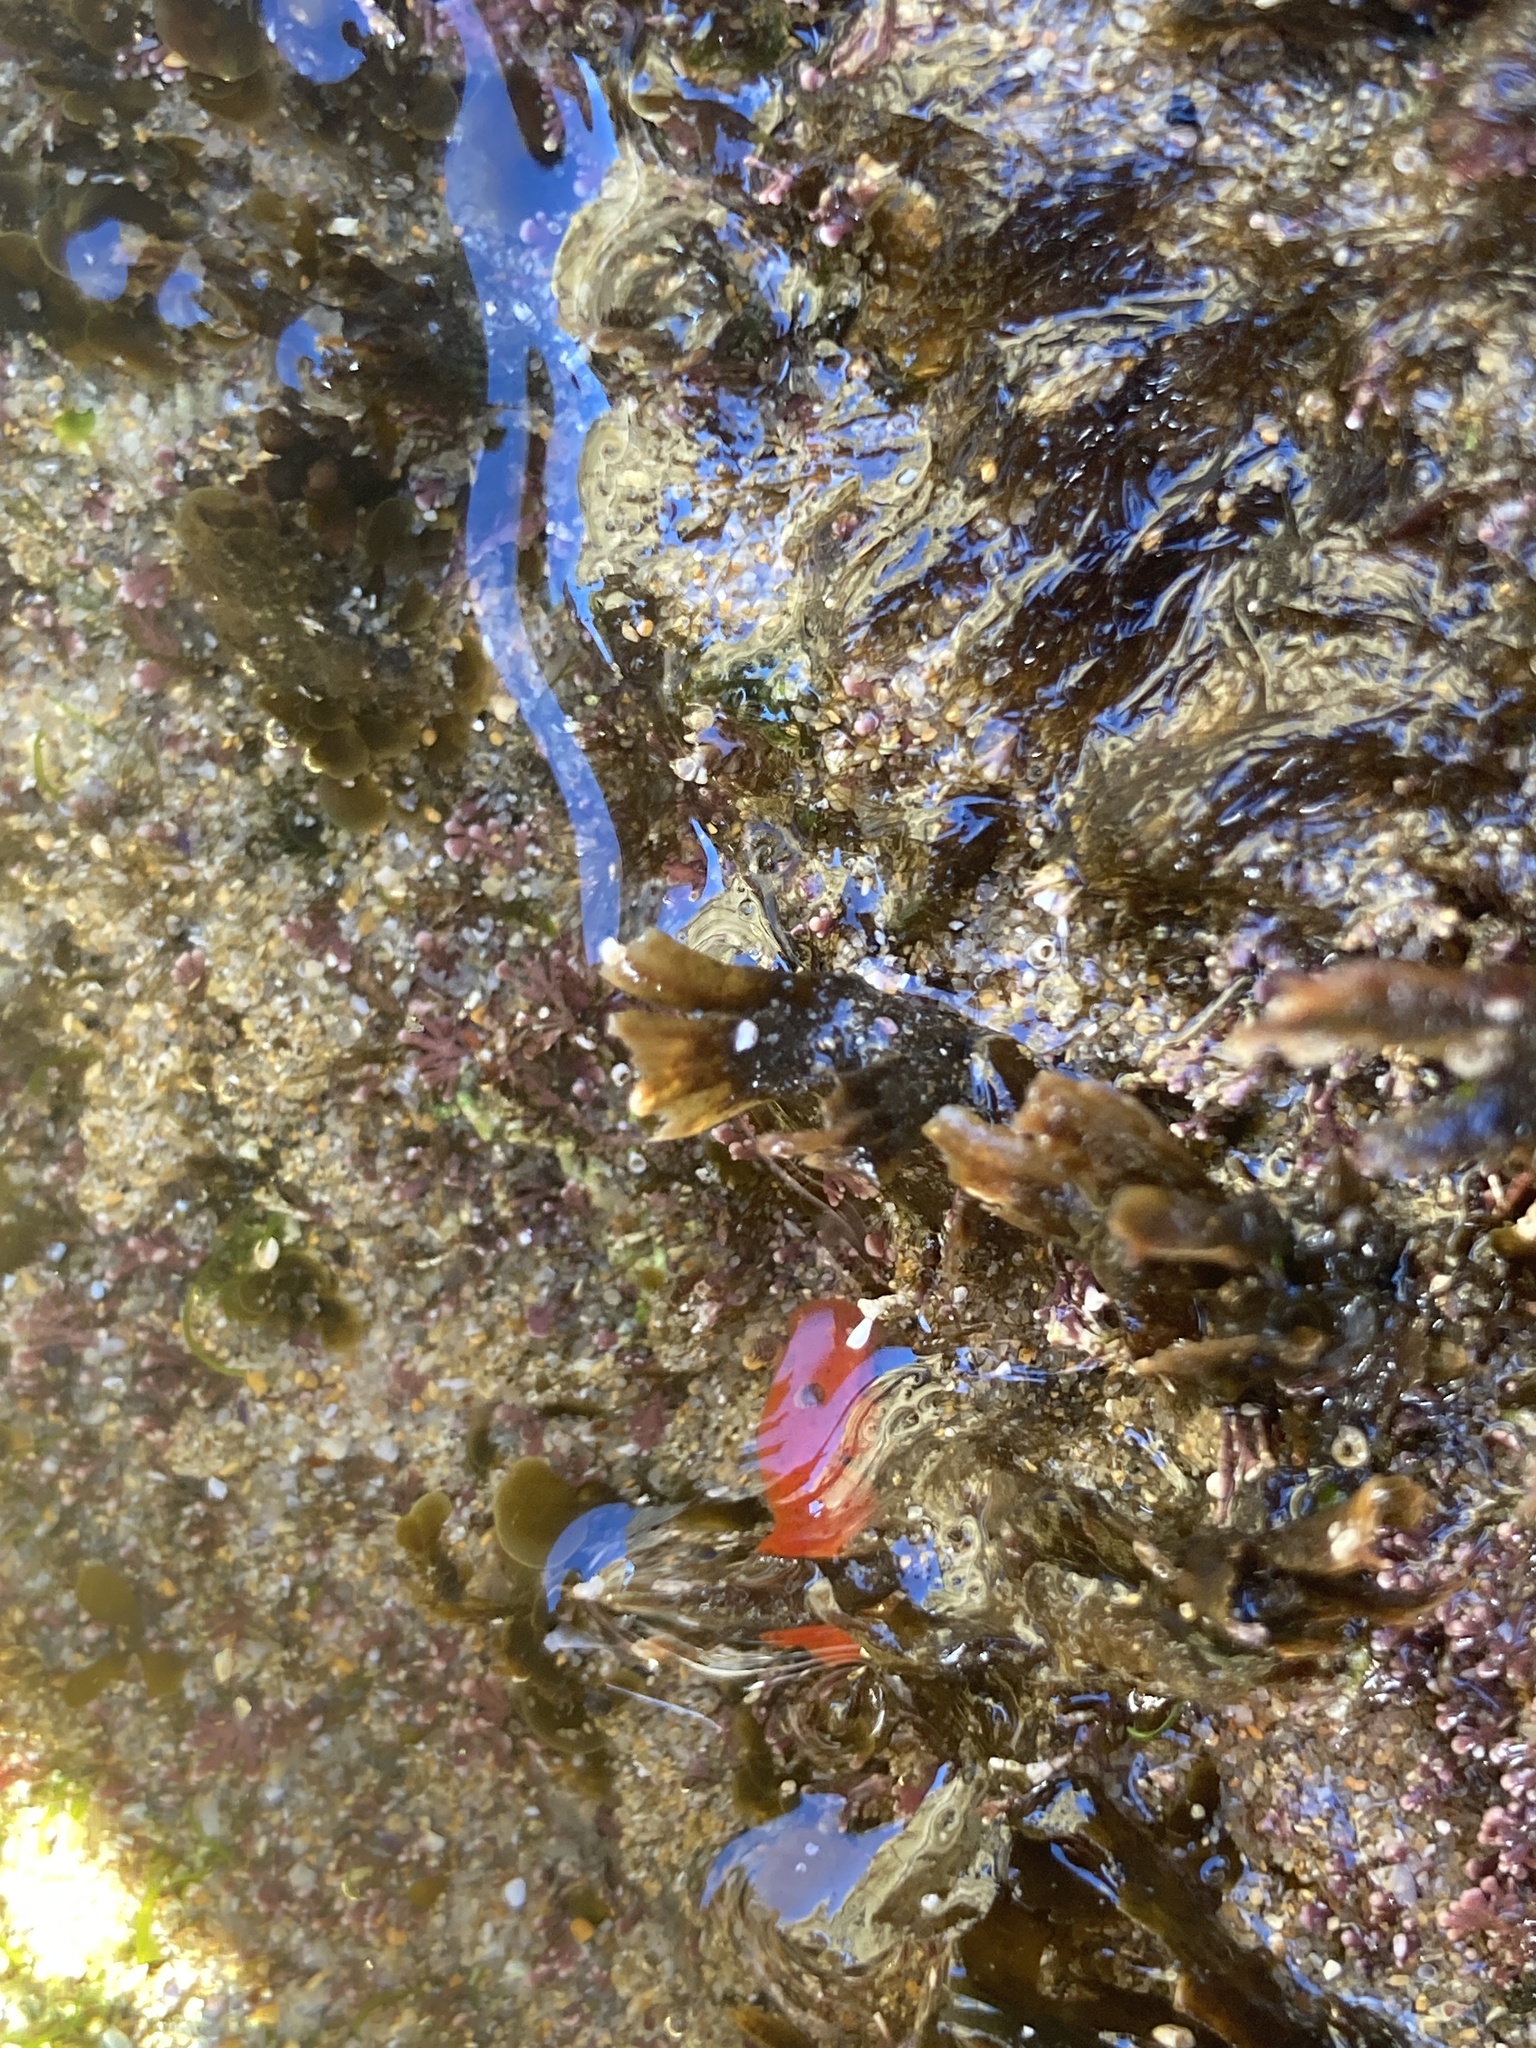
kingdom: Animalia
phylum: Mollusca
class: Gastropoda
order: Nudibranchia
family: Discodorididae
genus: Rostanga
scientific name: Rostanga arbutus
